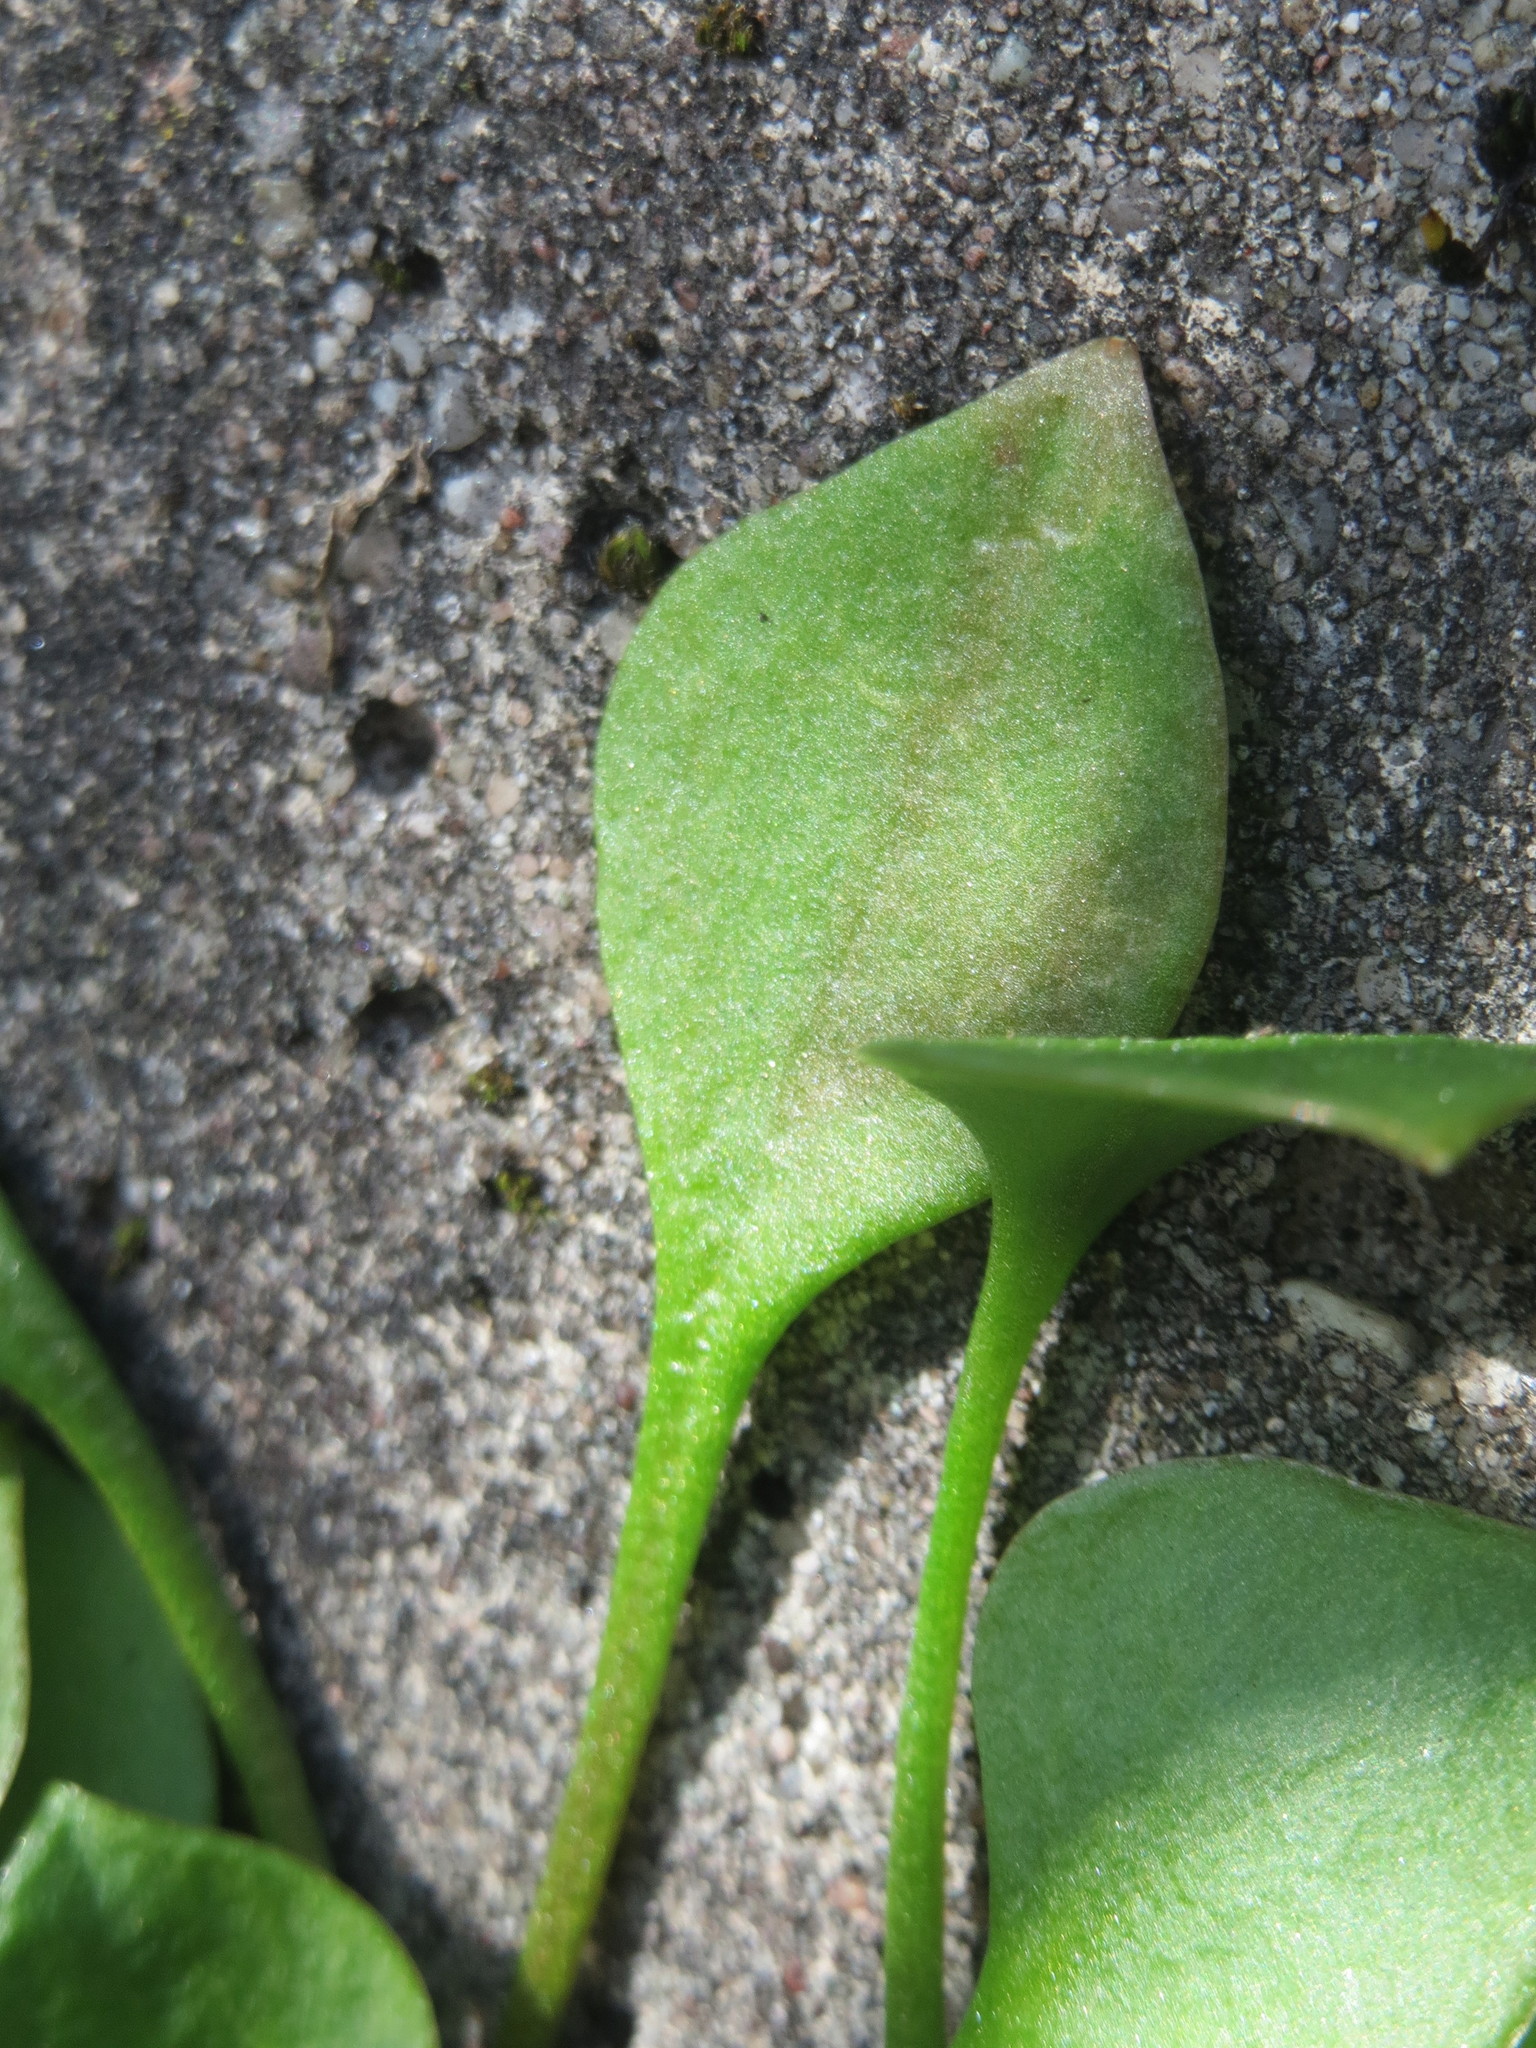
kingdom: Plantae
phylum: Tracheophyta
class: Magnoliopsida
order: Caryophyllales
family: Montiaceae
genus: Claytonia
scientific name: Claytonia perfoliata
